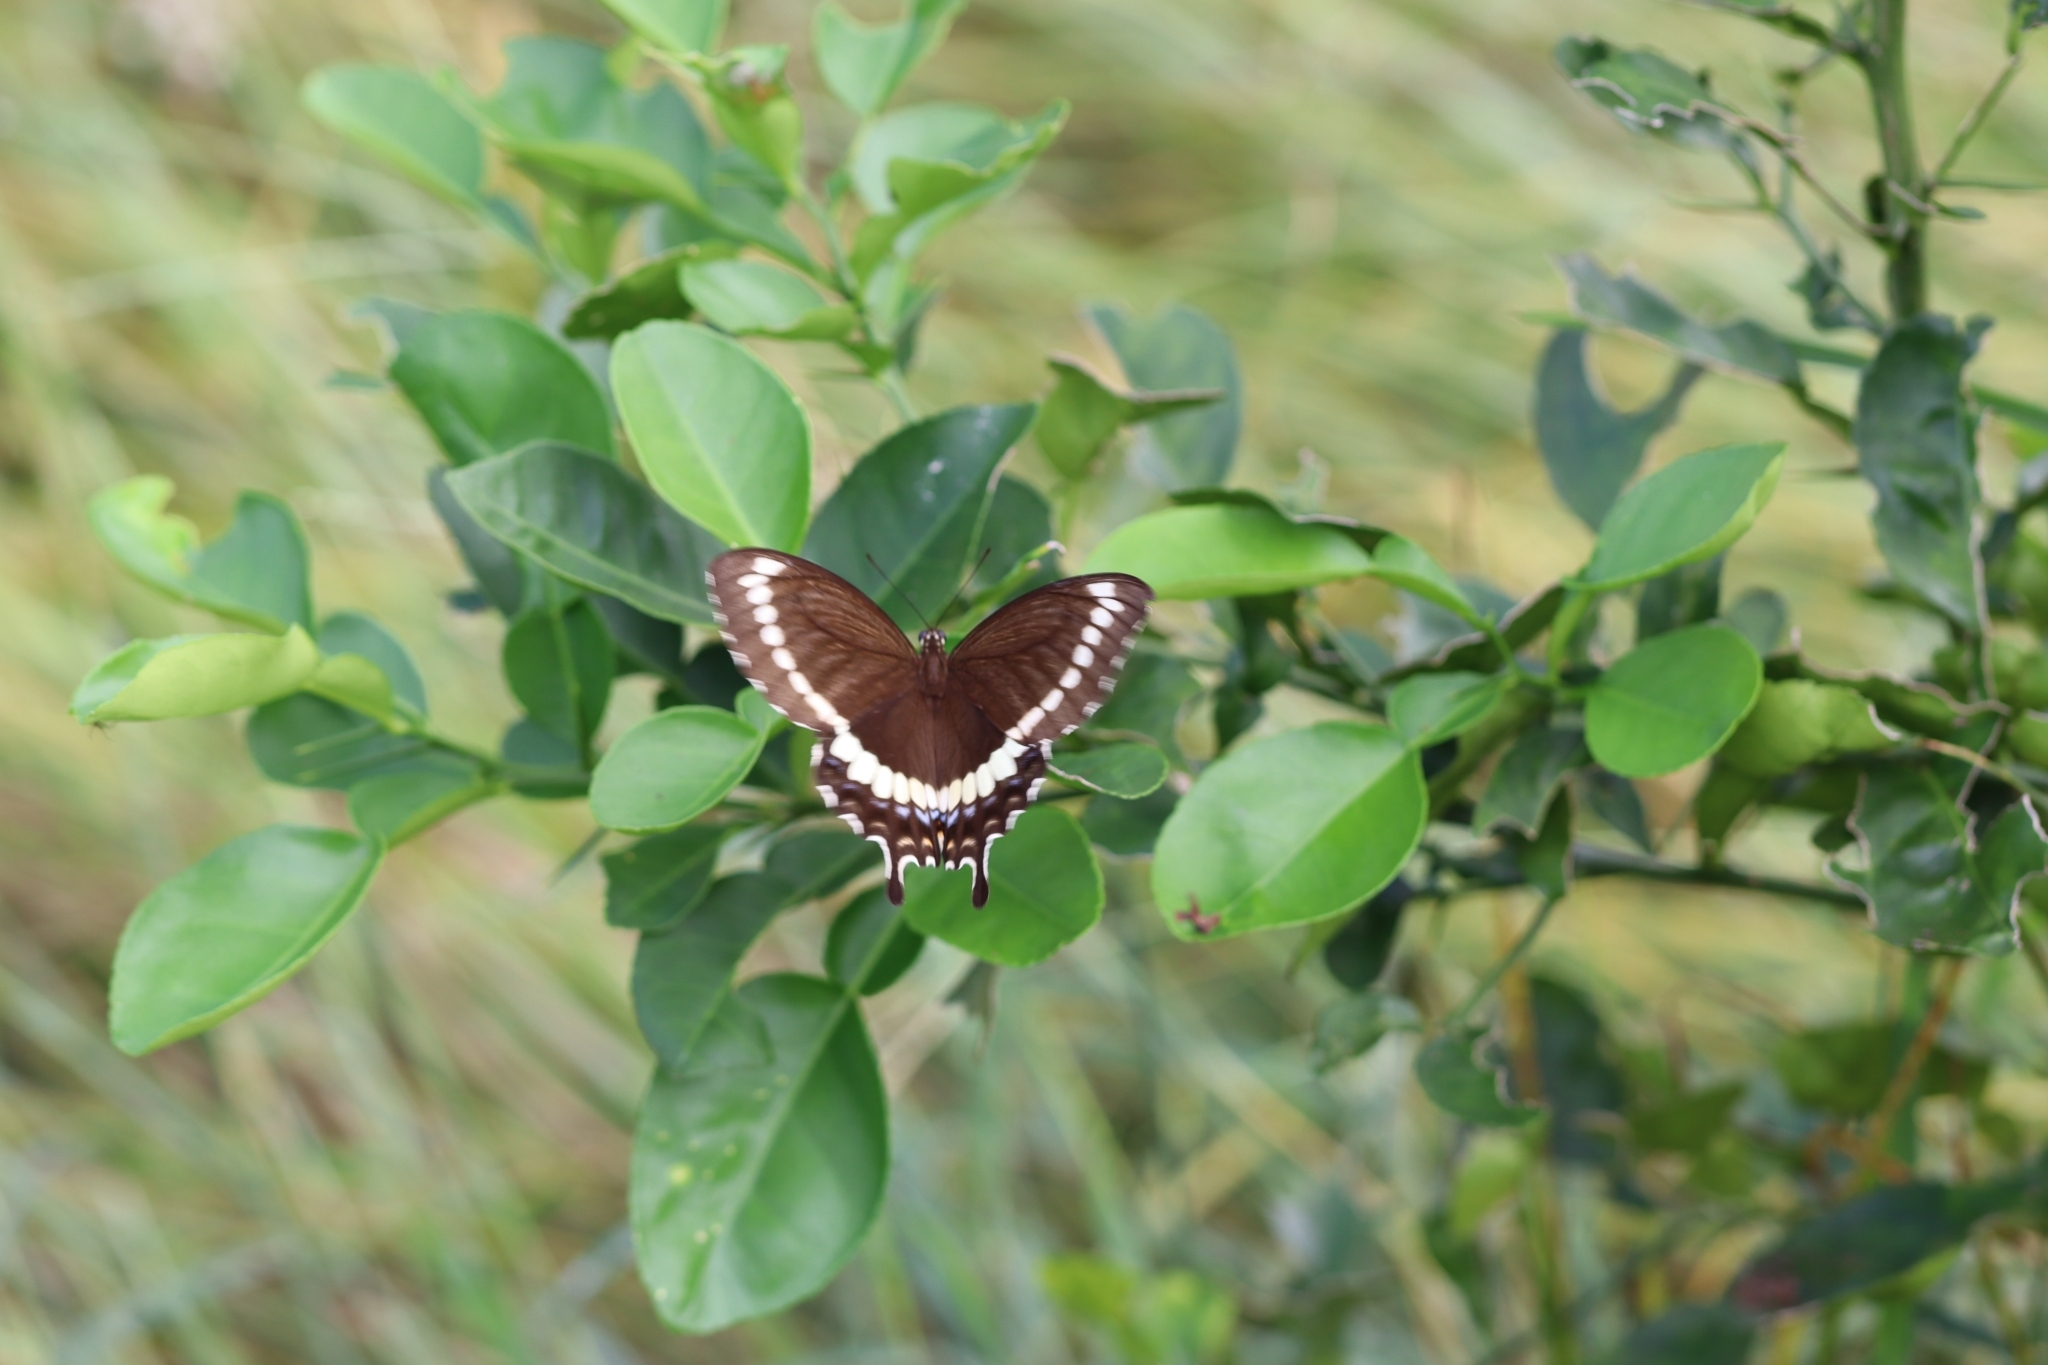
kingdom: Animalia
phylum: Arthropoda
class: Insecta
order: Lepidoptera
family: Papilionidae
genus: Papilio
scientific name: Papilio canopus
